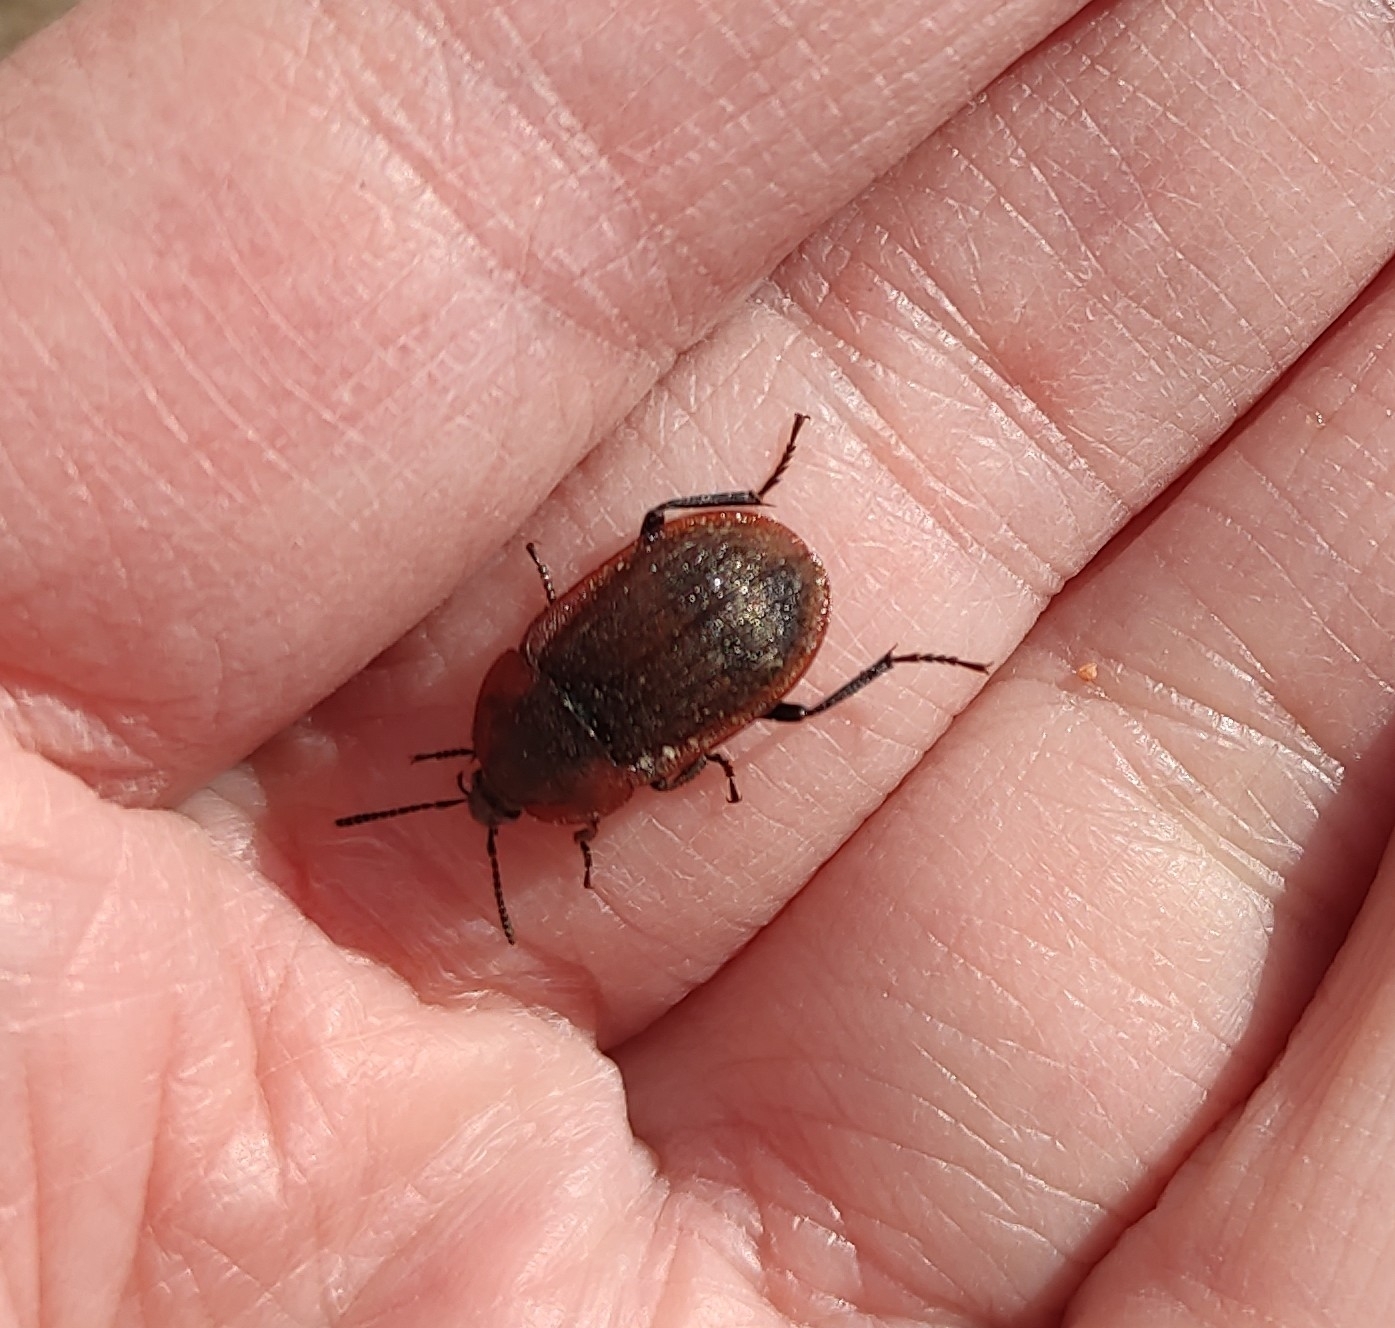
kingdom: Animalia
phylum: Arthropoda
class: Insecta
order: Coleoptera
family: Staphylinidae
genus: Silpha
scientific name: Silpha atrata
